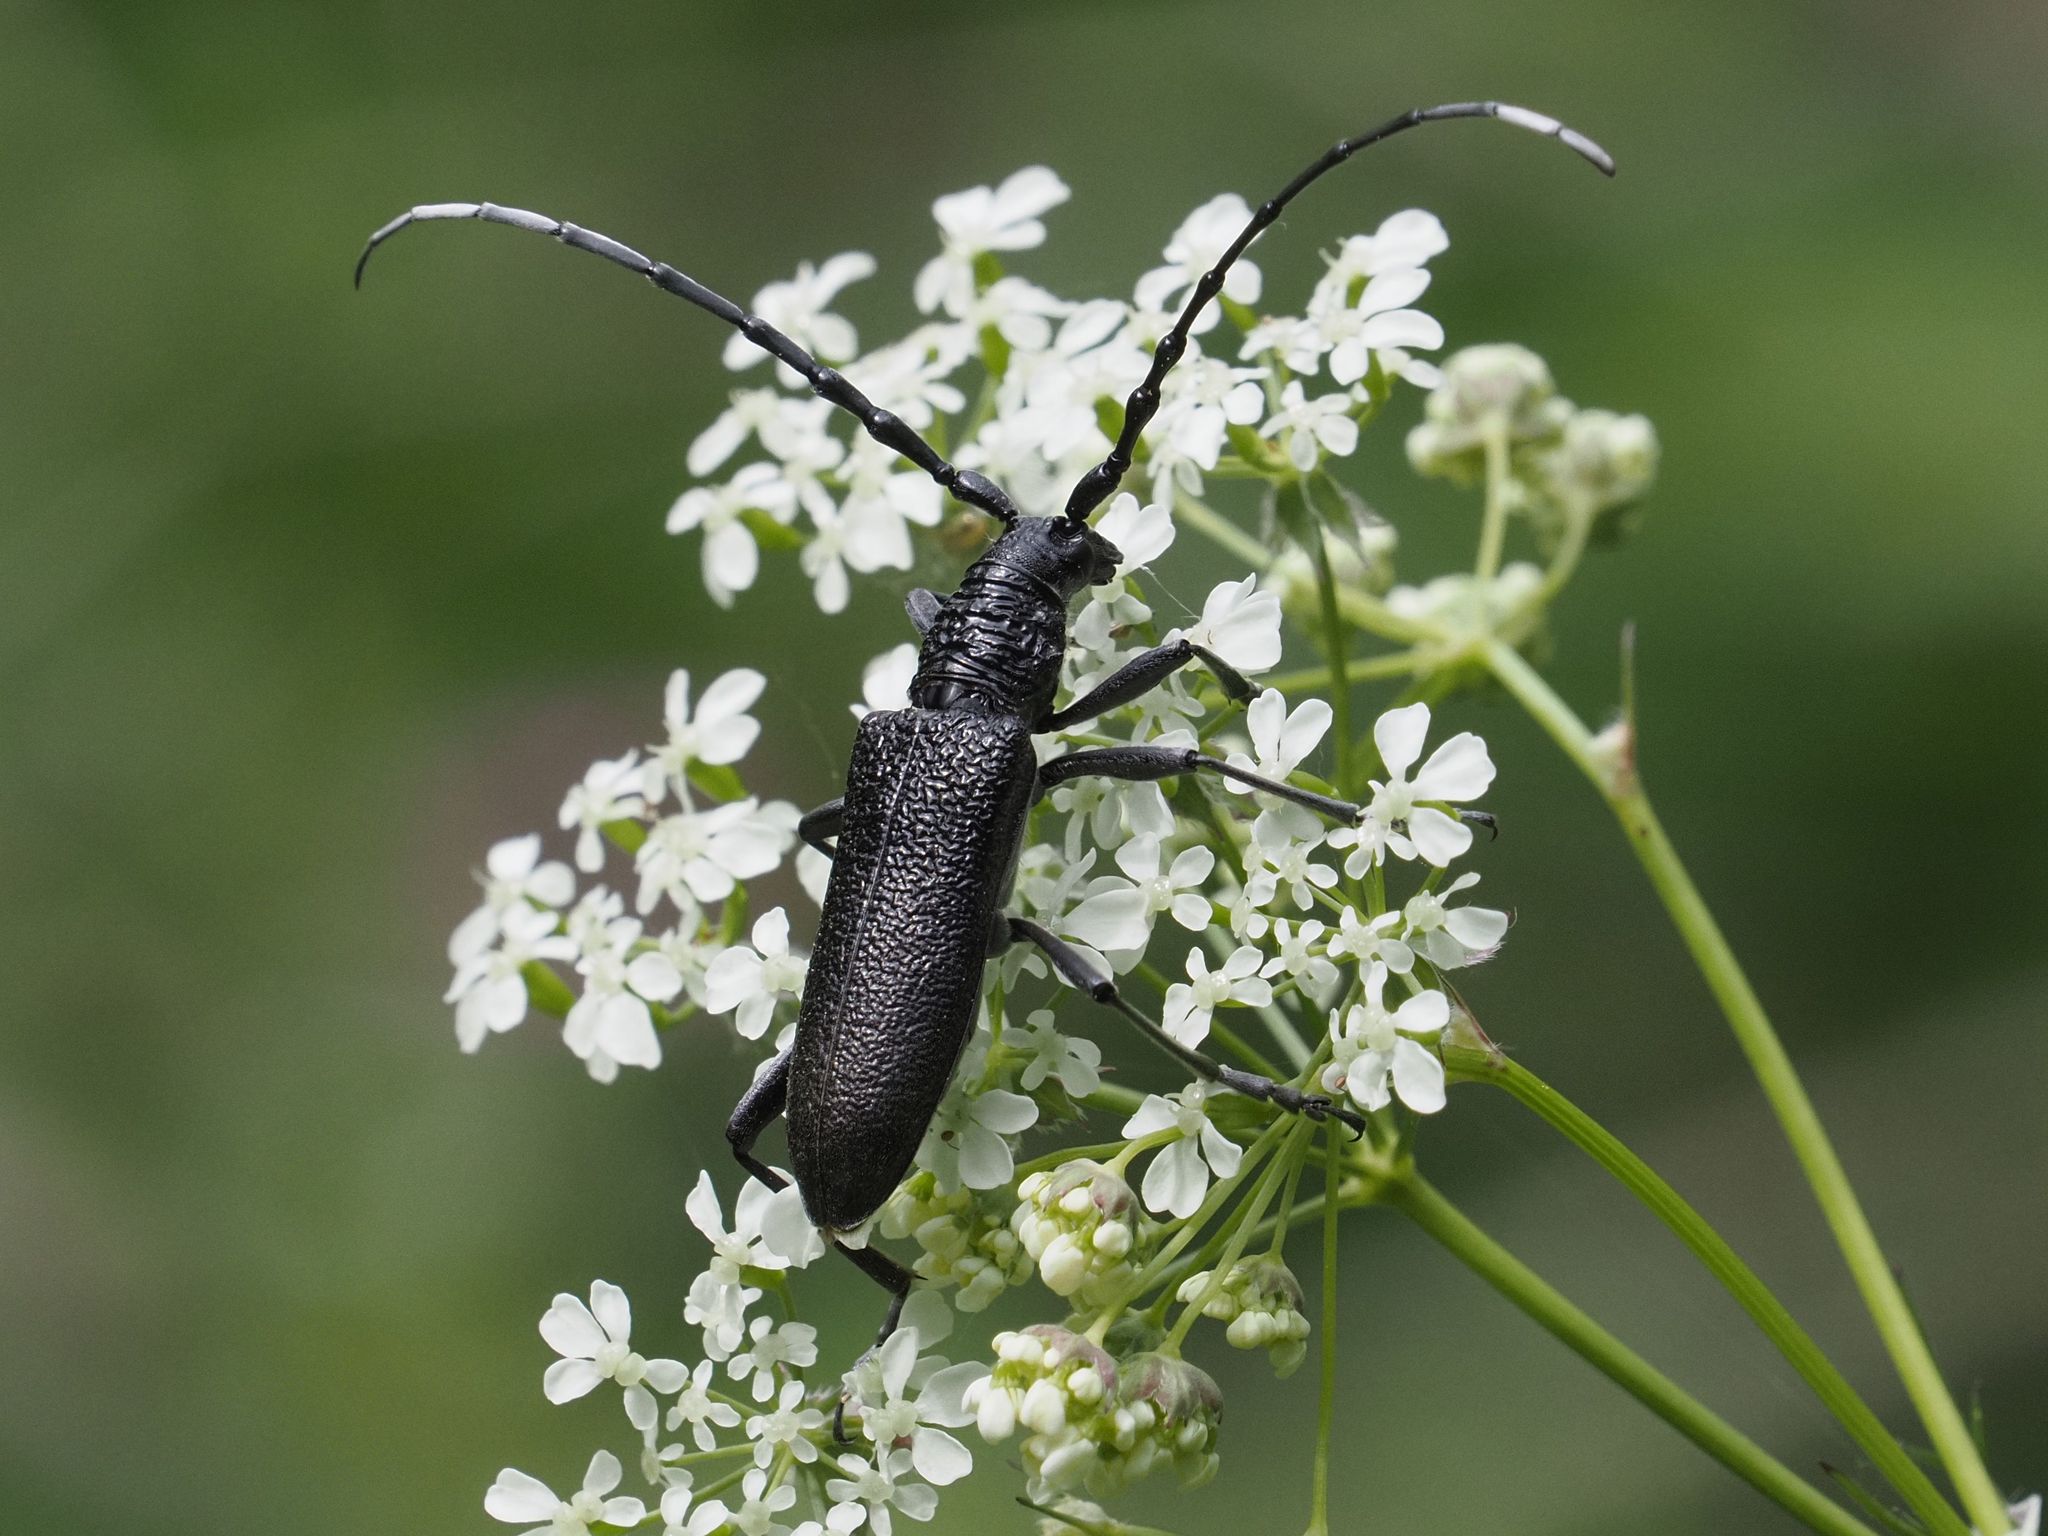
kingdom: Animalia
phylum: Arthropoda
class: Insecta
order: Coleoptera
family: Cerambycidae
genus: Cerambyx
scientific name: Cerambyx scopolii
